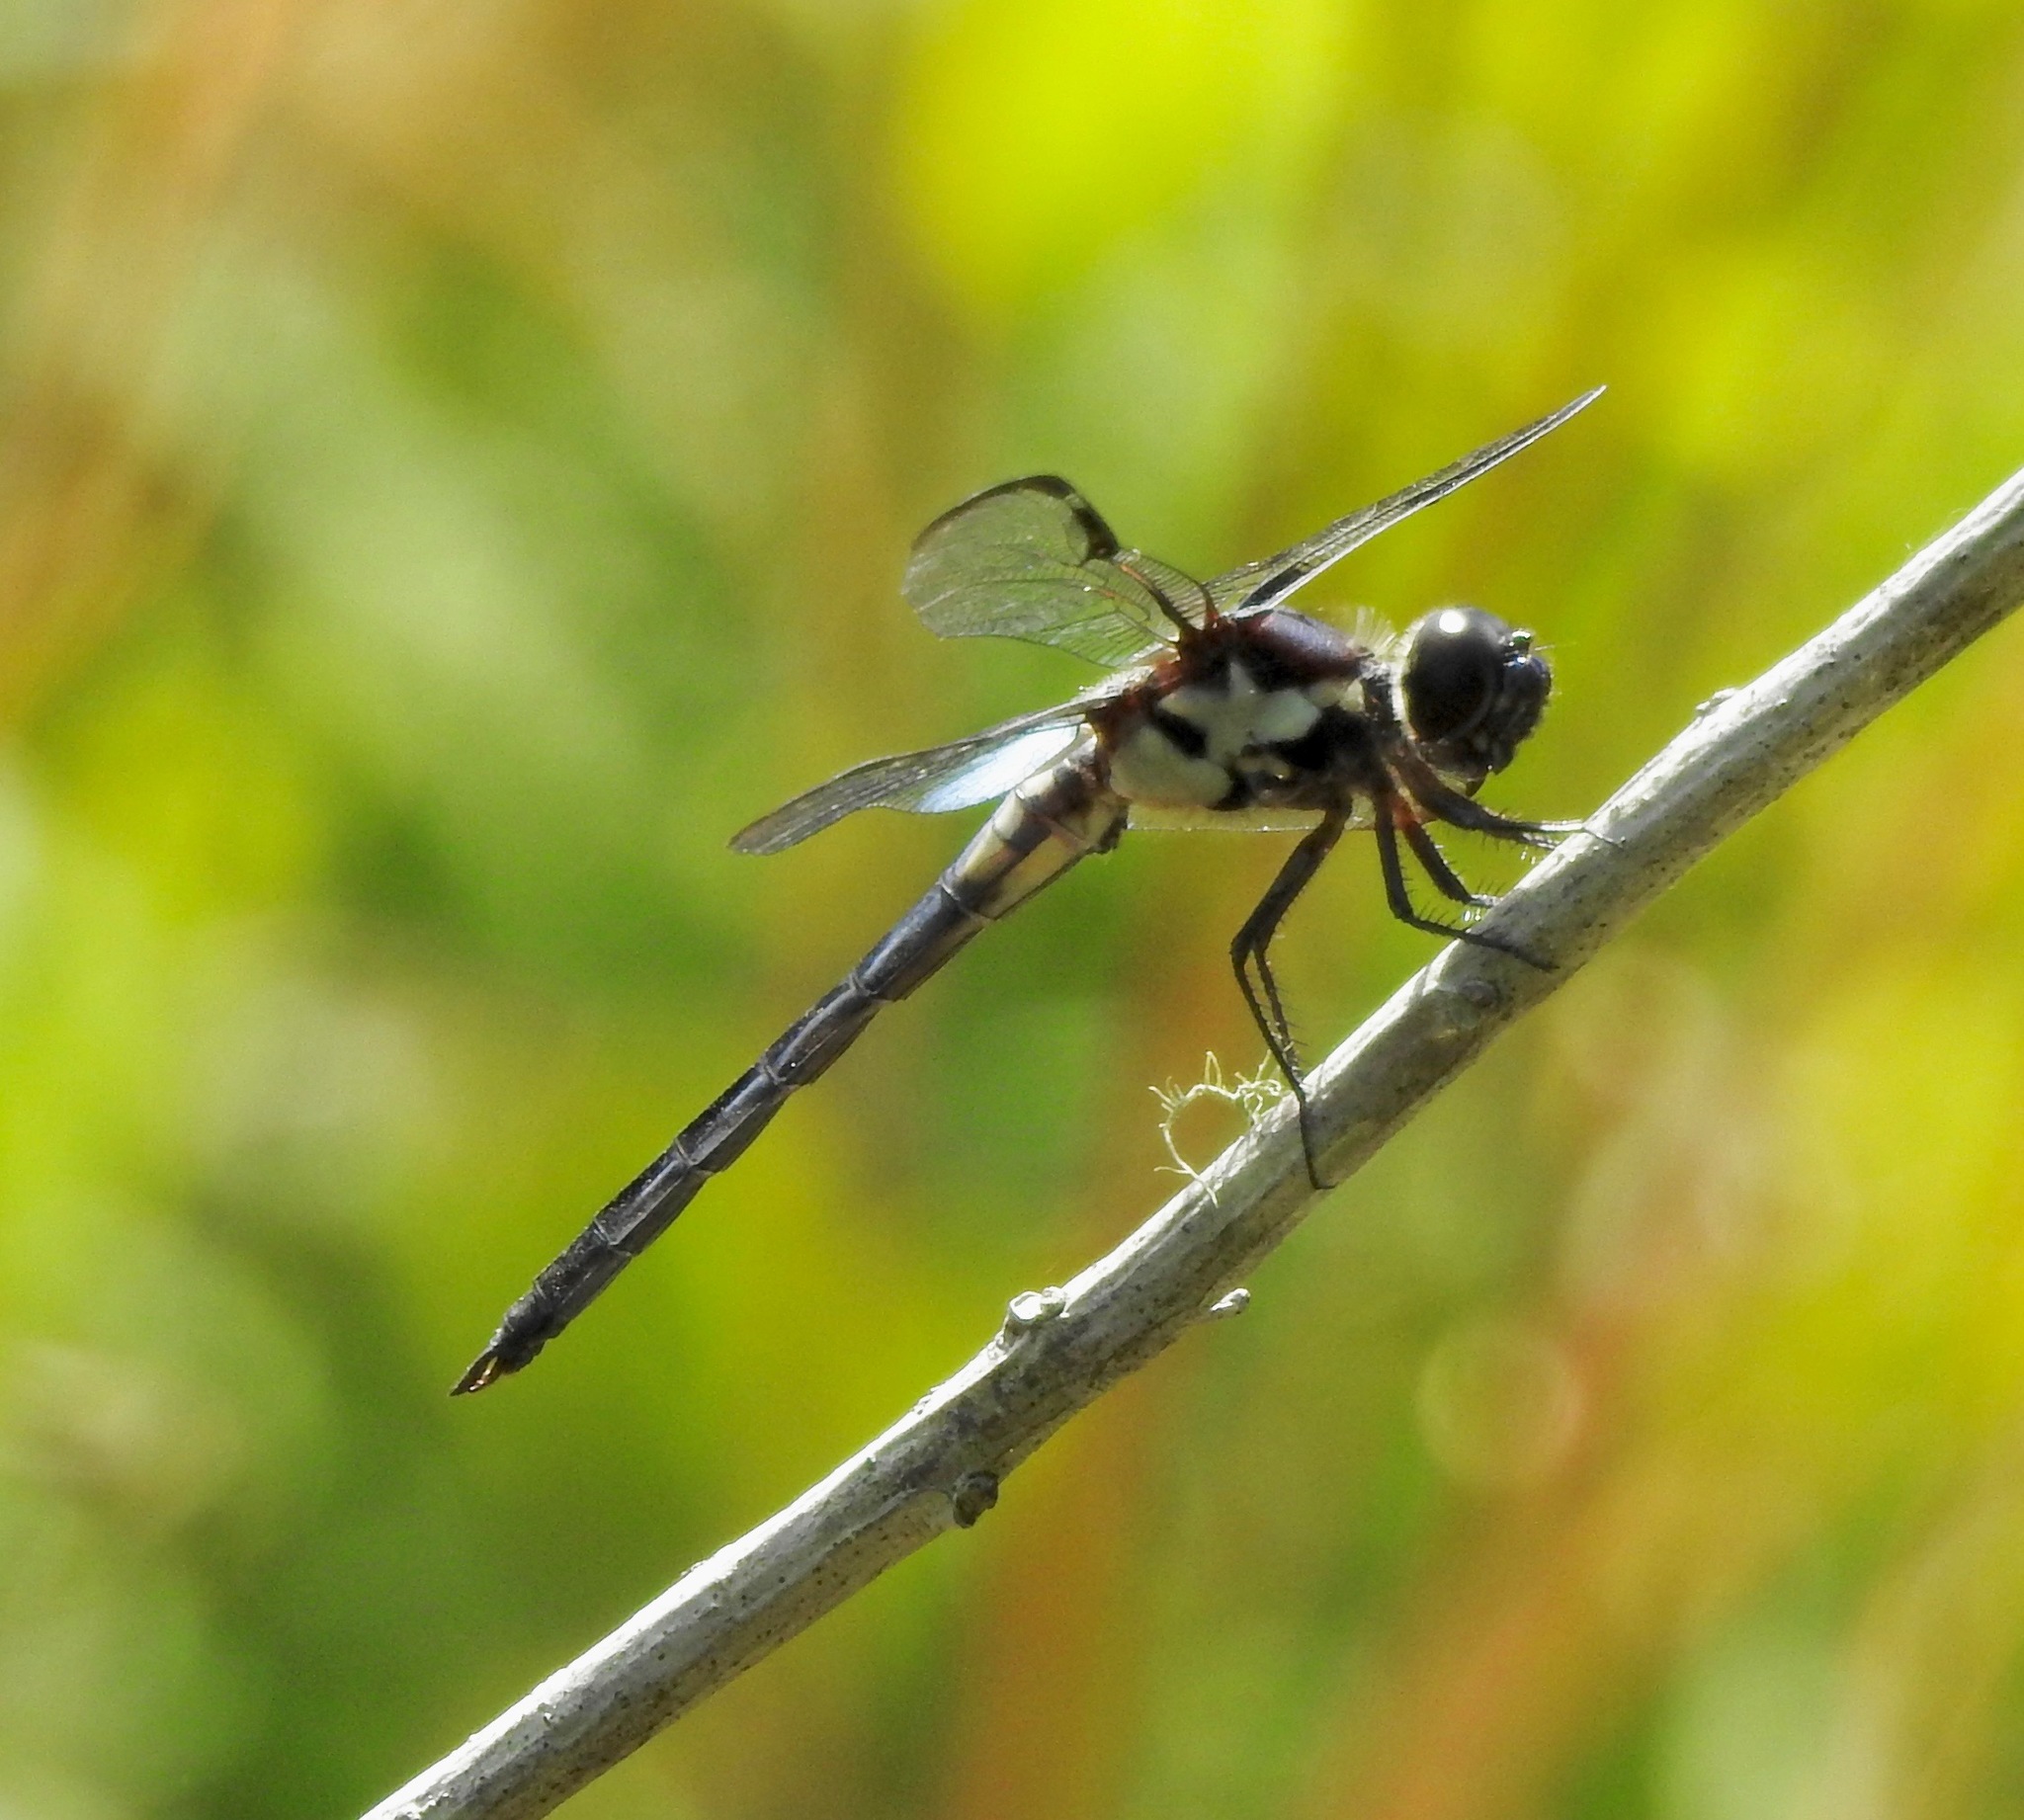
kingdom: Animalia
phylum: Arthropoda
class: Insecta
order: Odonata
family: Libellulidae
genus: Libellula
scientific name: Libellula axilena
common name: Bar-winged skimmer
